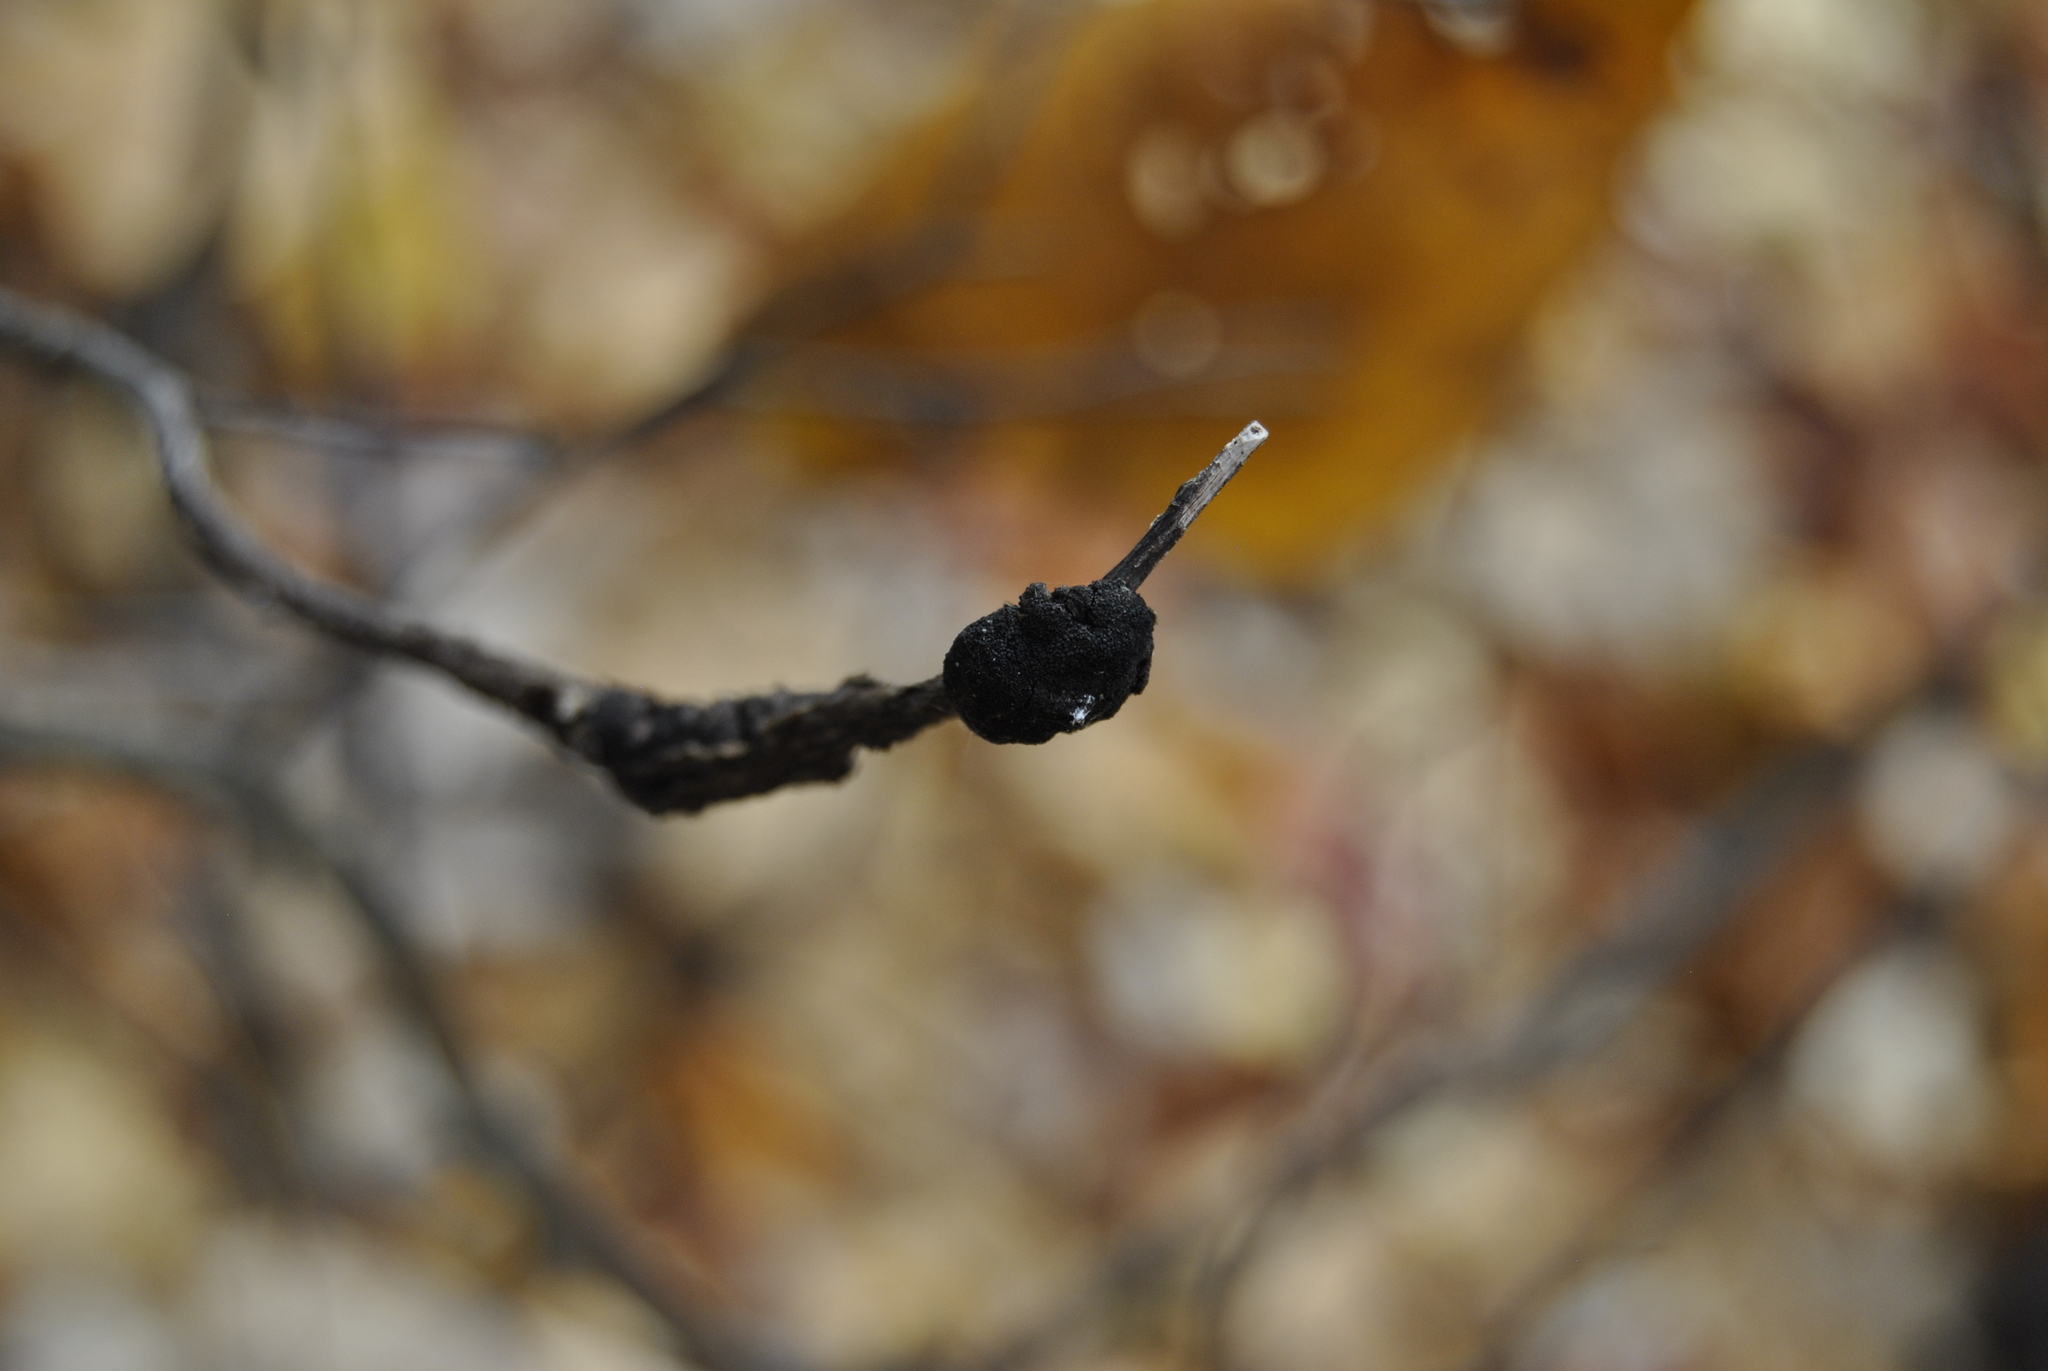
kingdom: Fungi
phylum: Ascomycota
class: Dothideomycetes
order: Venturiales
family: Venturiaceae
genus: Apiosporina
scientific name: Apiosporina morbosa
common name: Black knot
